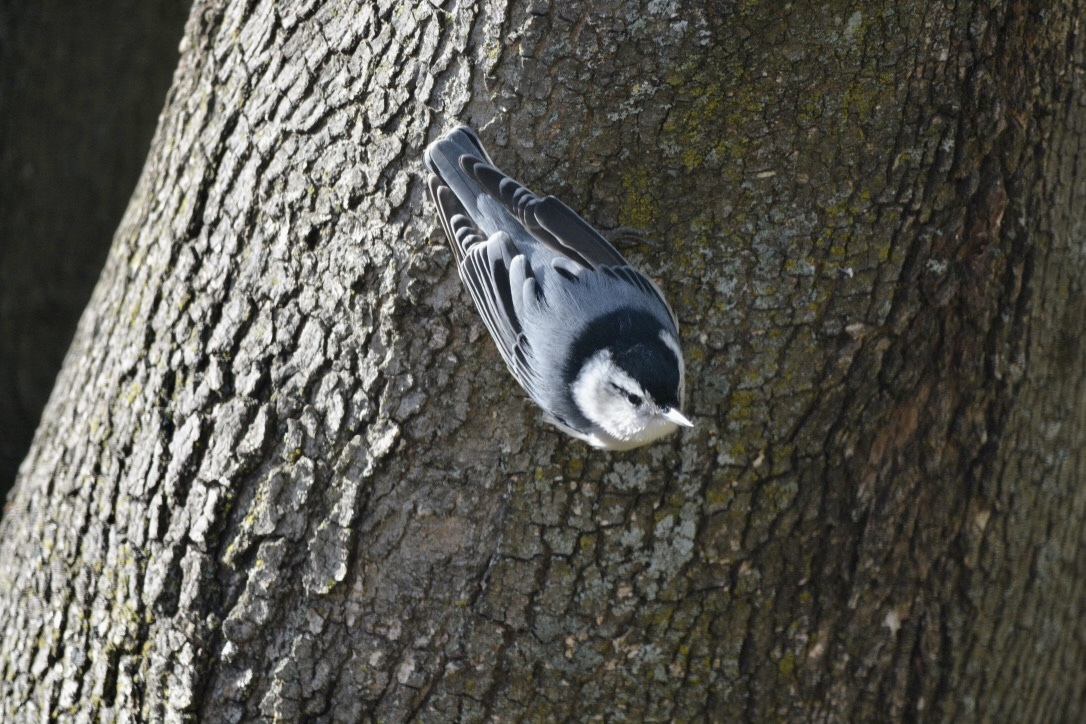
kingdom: Animalia
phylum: Chordata
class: Aves
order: Passeriformes
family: Sittidae
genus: Sitta
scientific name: Sitta carolinensis
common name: White-breasted nuthatch
